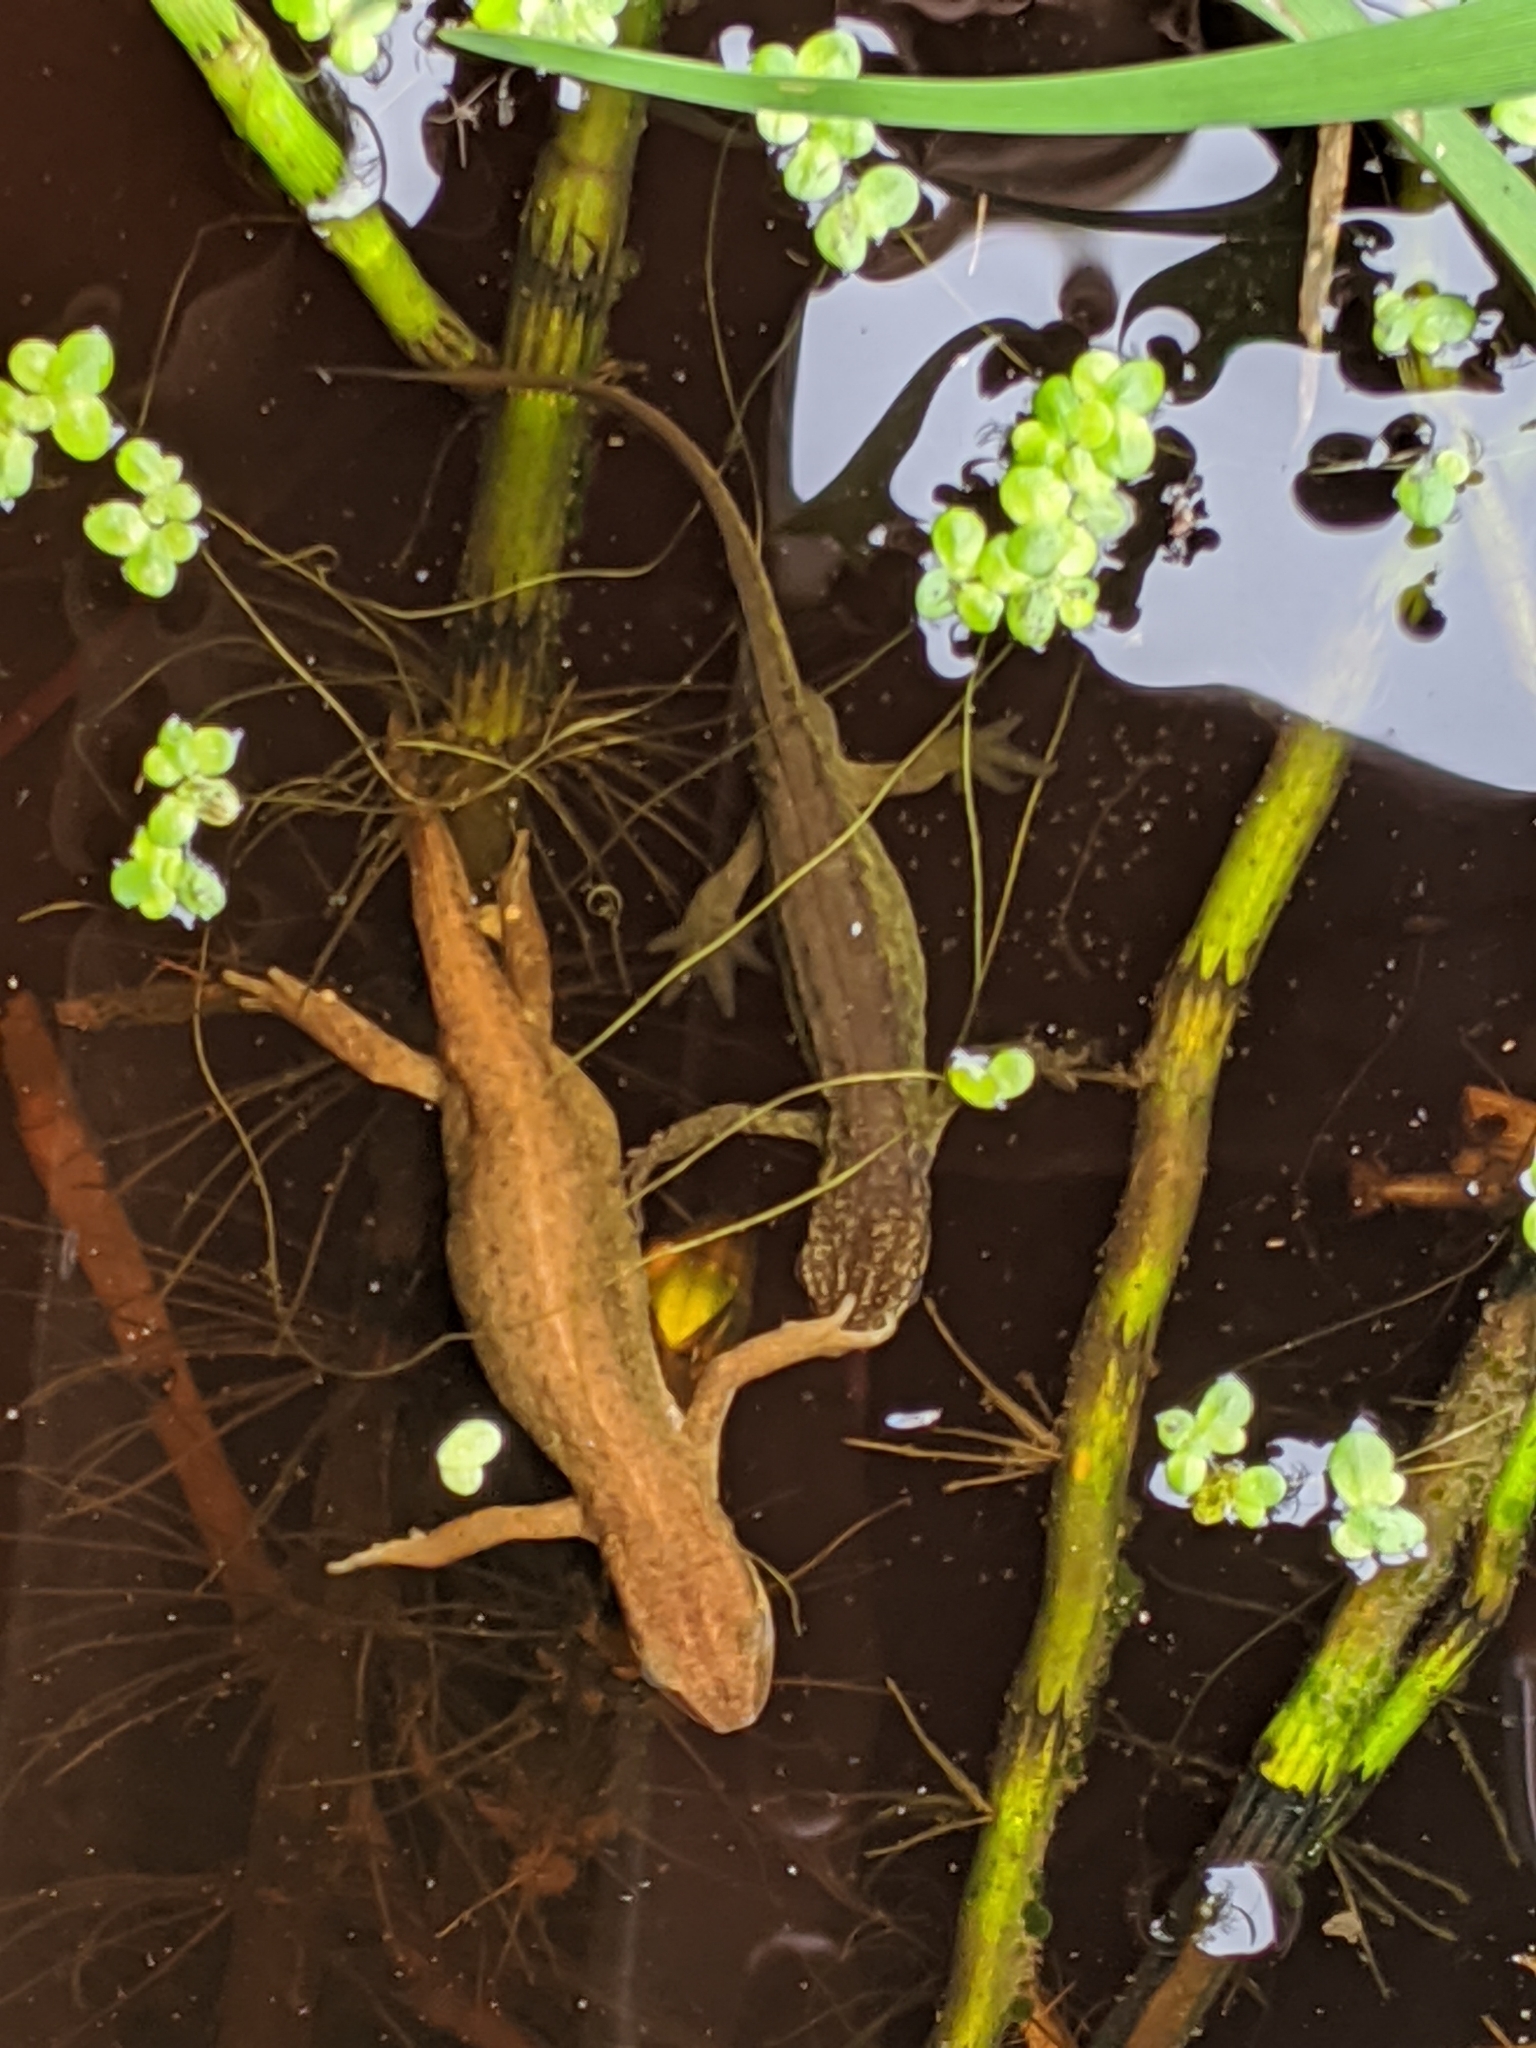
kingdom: Animalia
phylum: Chordata
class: Amphibia
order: Caudata
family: Salamandridae
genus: Lissotriton
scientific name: Lissotriton helveticus
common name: Palmate newt
